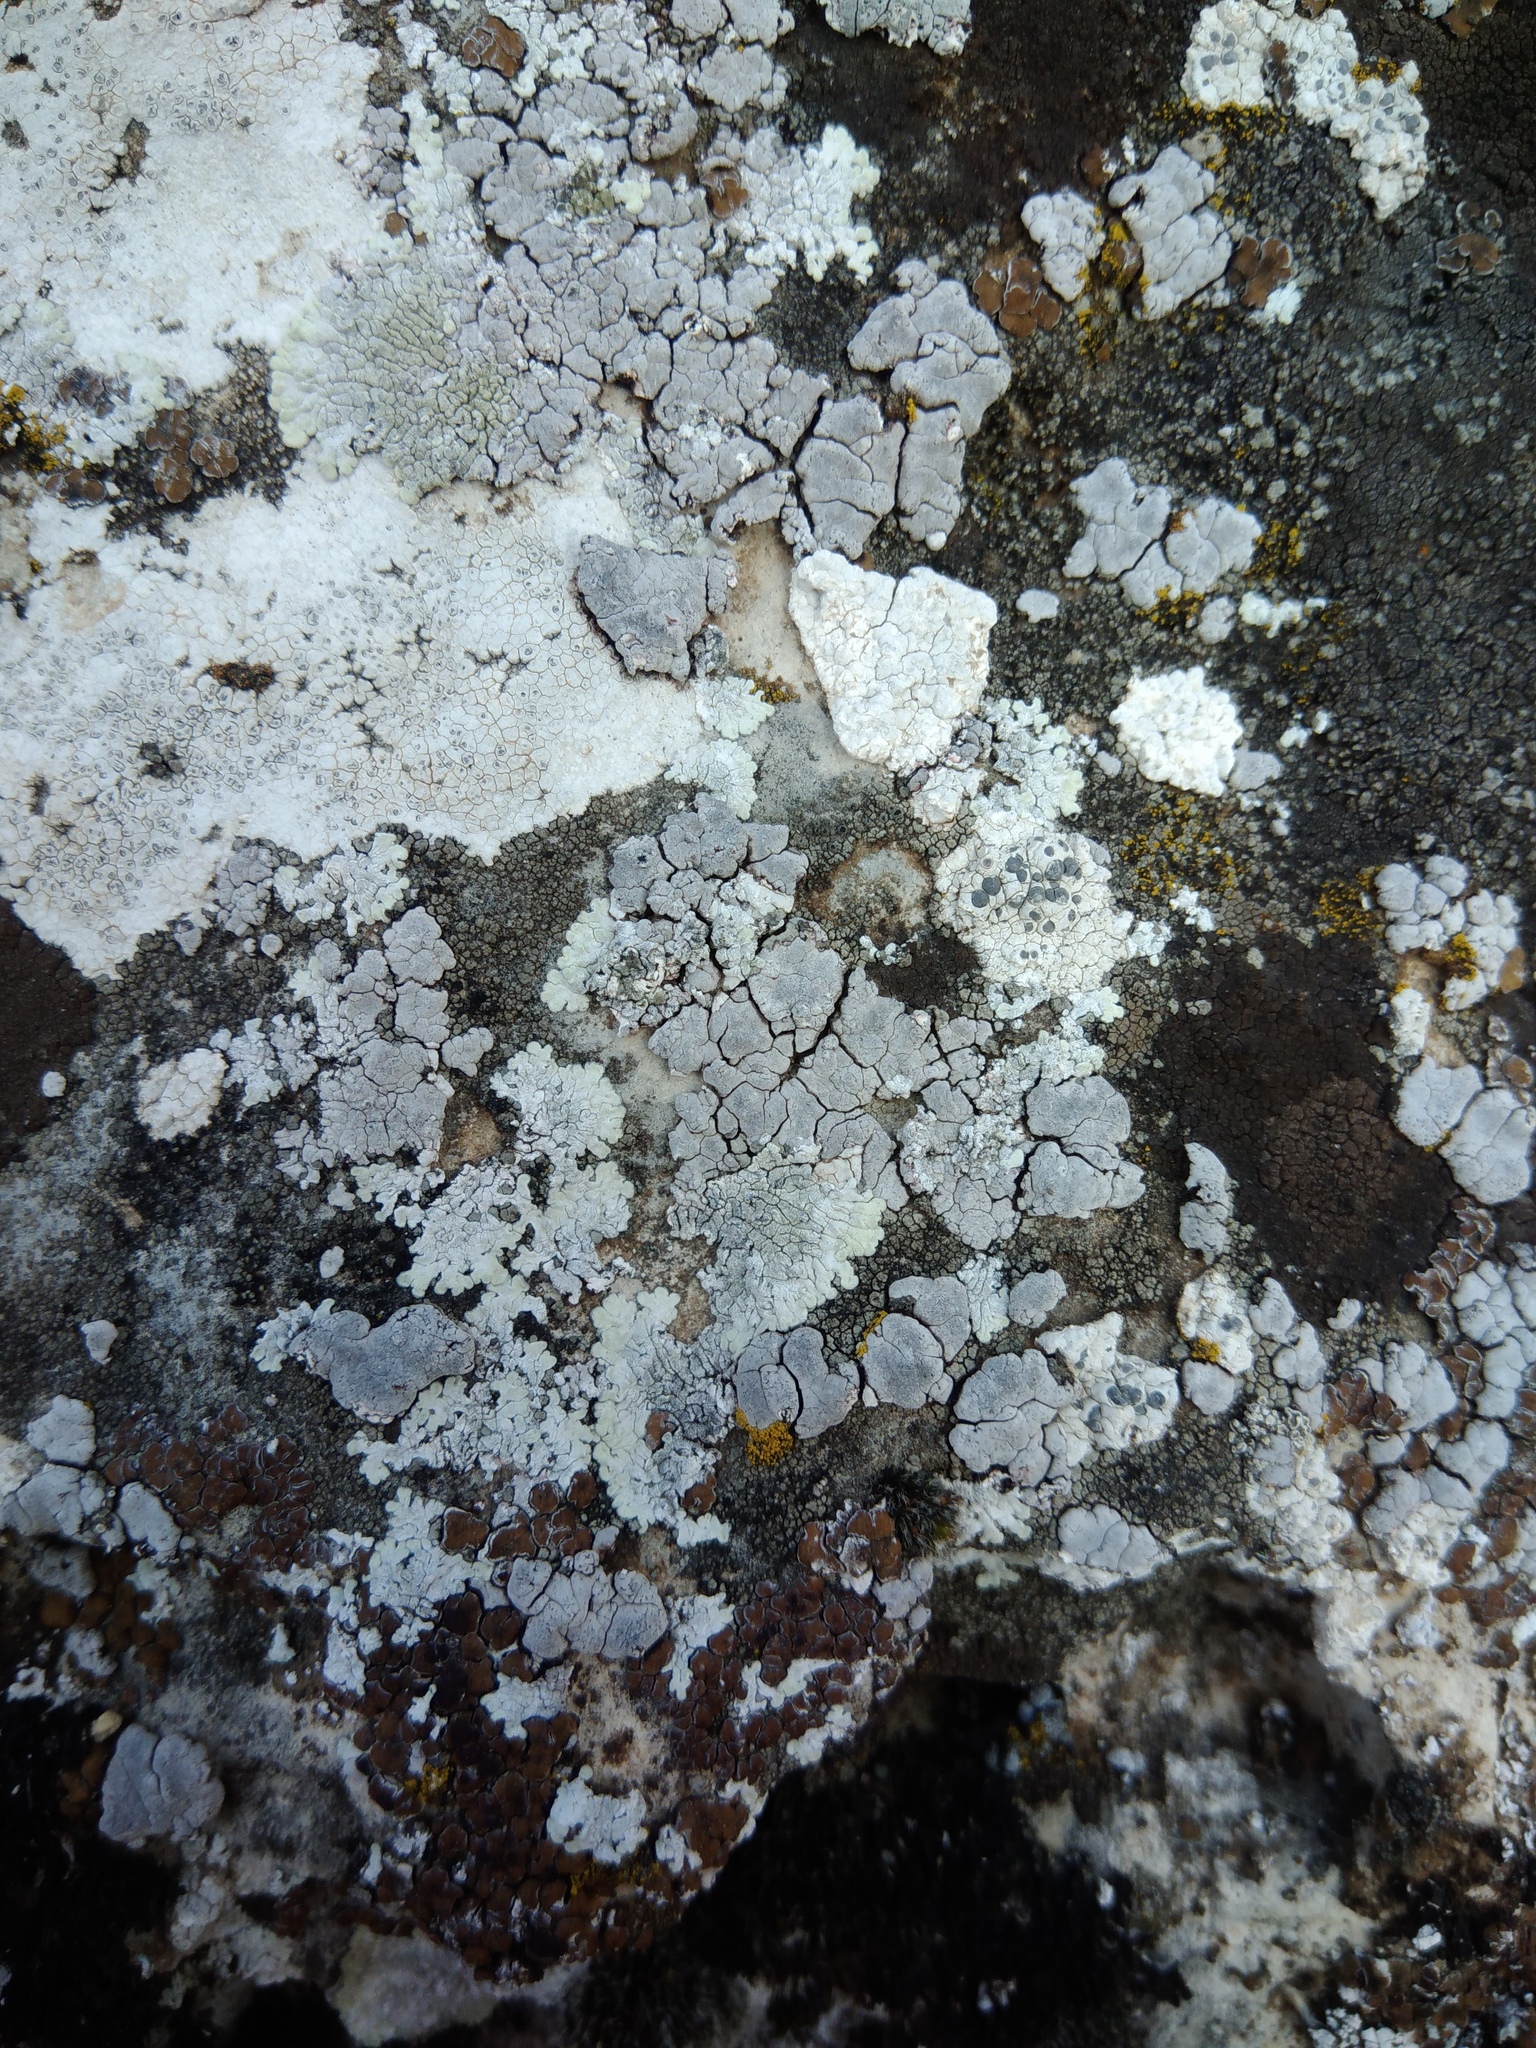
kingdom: Fungi
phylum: Ascomycota
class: Eurotiomycetes
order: Verrucariales
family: Verrucariaceae
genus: Placocarpus
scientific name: Placocarpus schaereri
